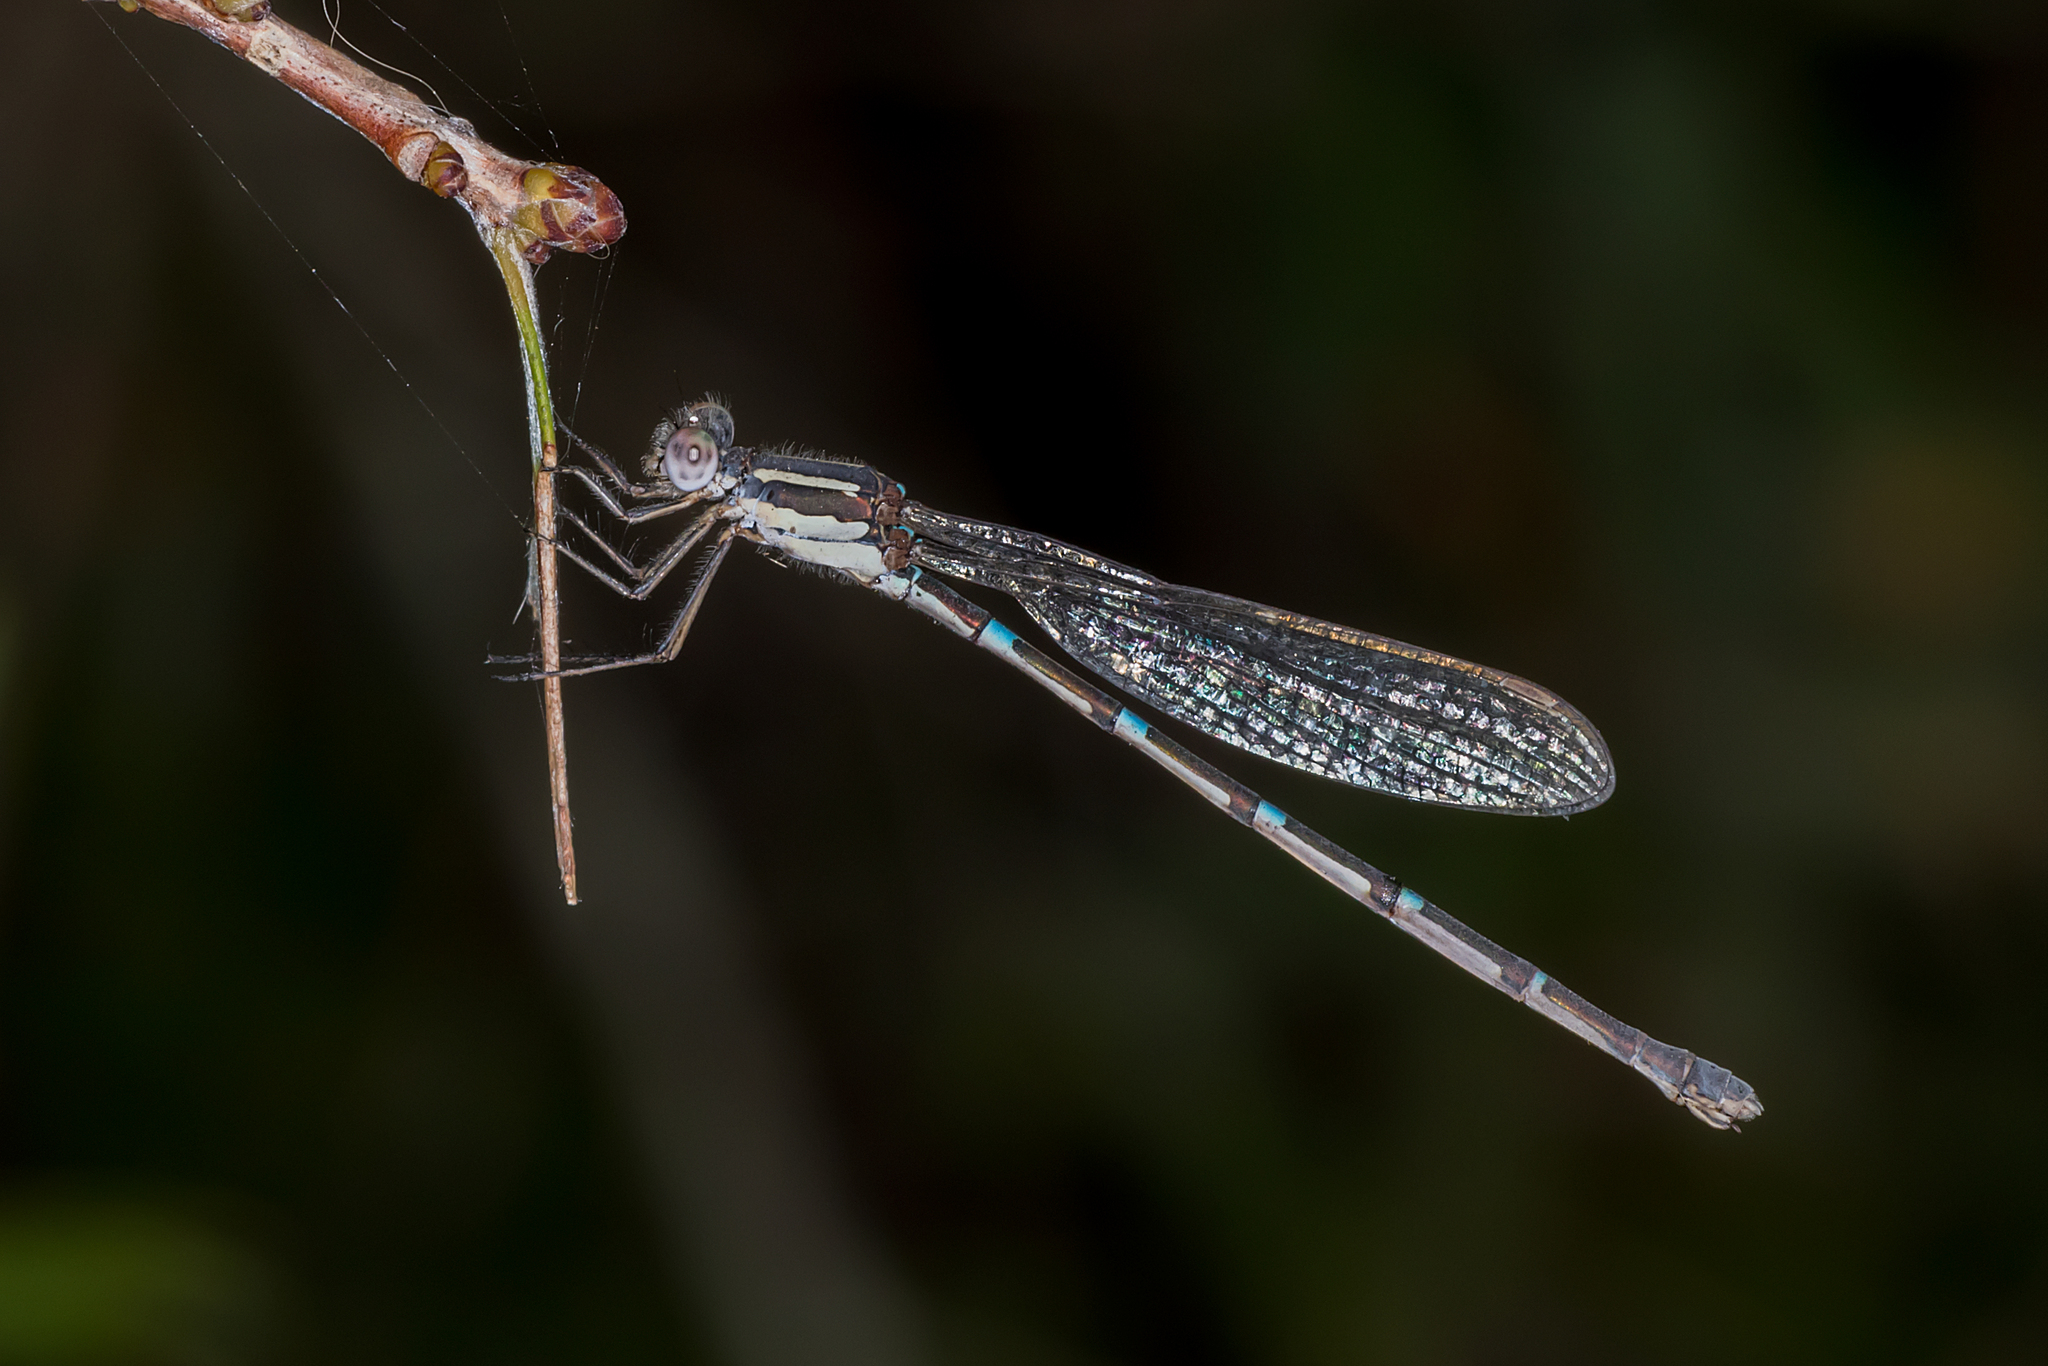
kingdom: Animalia
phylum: Arthropoda
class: Insecta
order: Odonata
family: Lestidae
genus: Austrolestes
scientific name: Austrolestes leda
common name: Wandering ringtail
